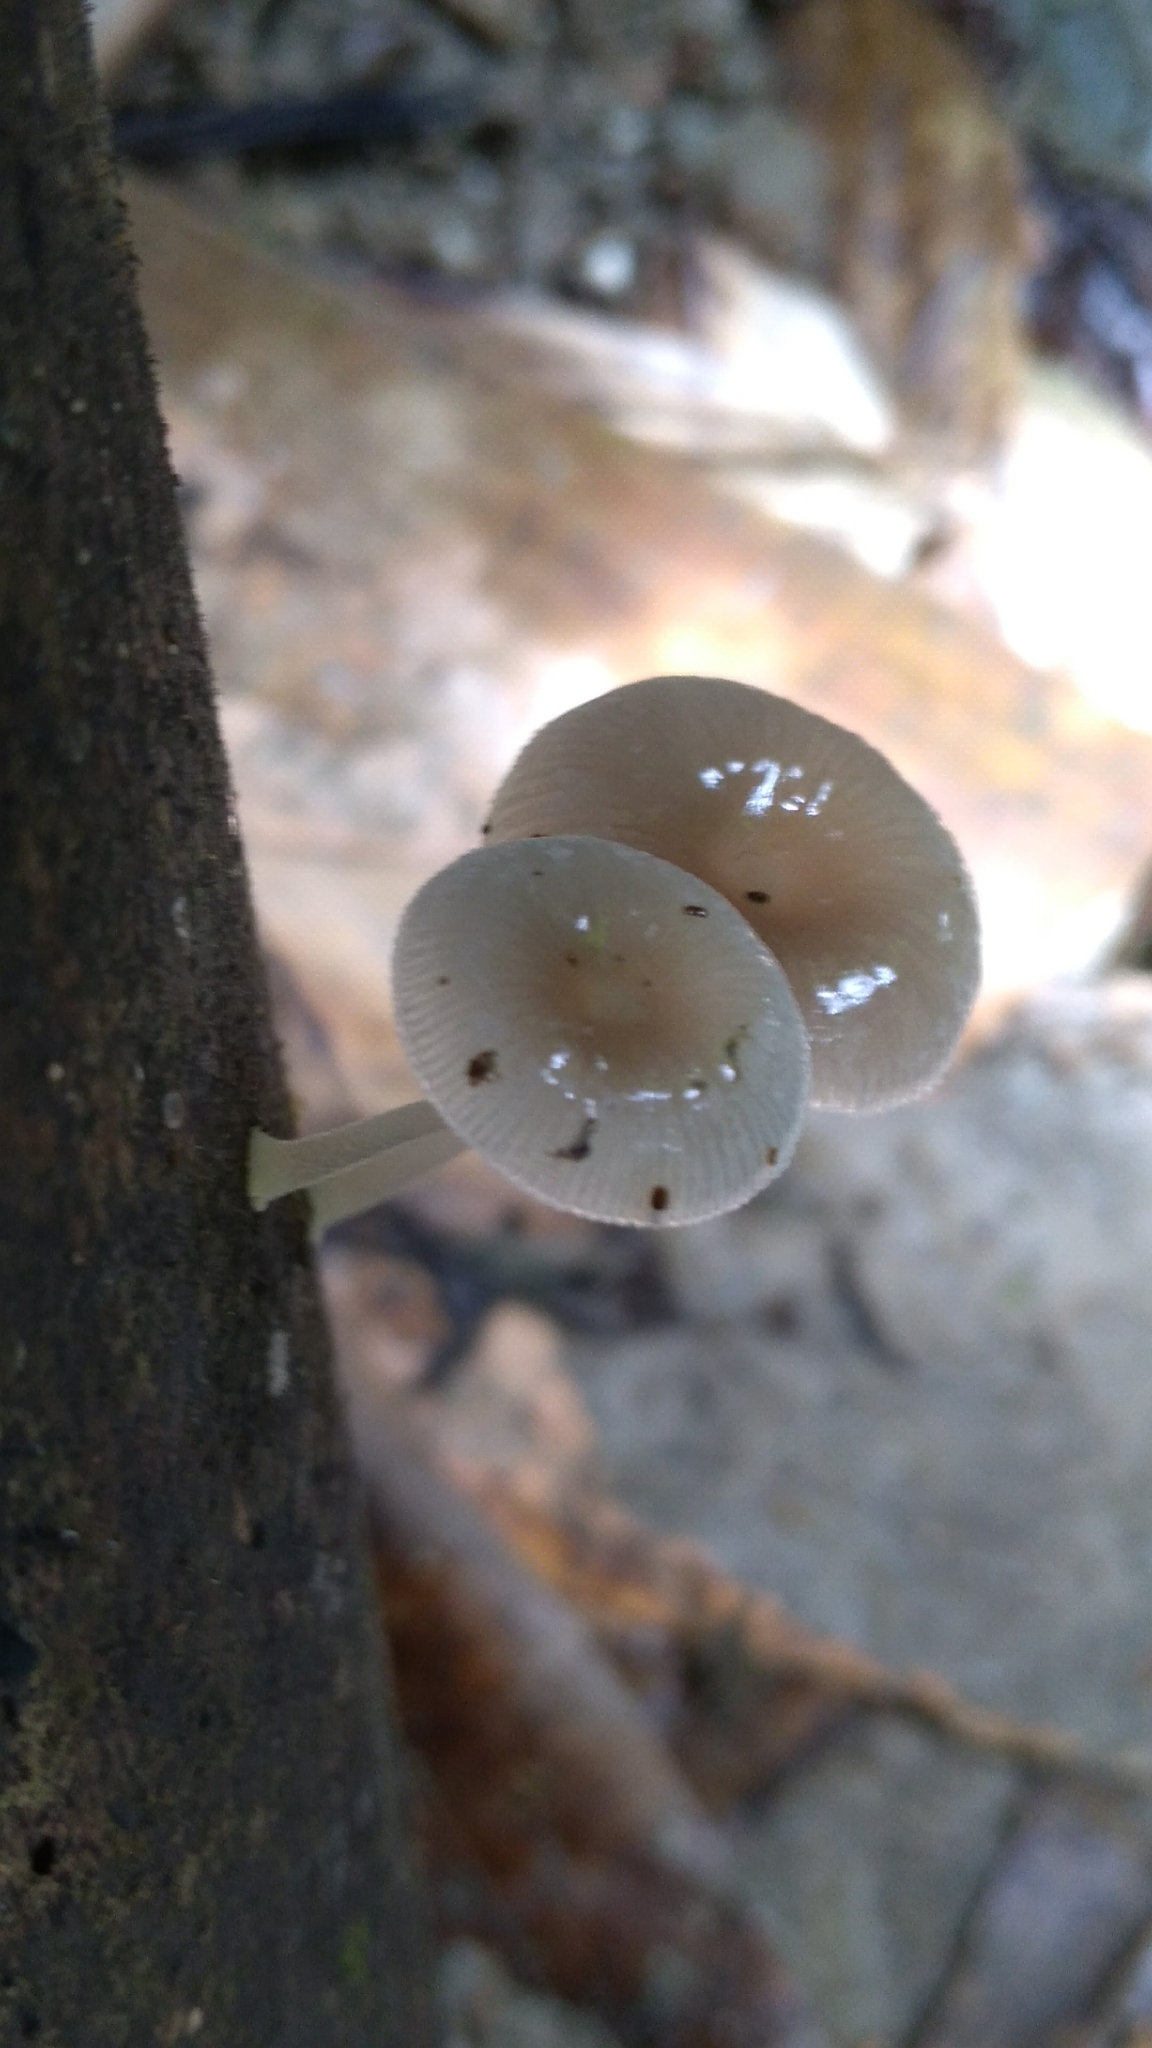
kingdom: Fungi
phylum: Basidiomycota
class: Agaricomycetes
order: Agaricales
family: Mycenaceae
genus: Mycena
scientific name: Mycena chlorophos
